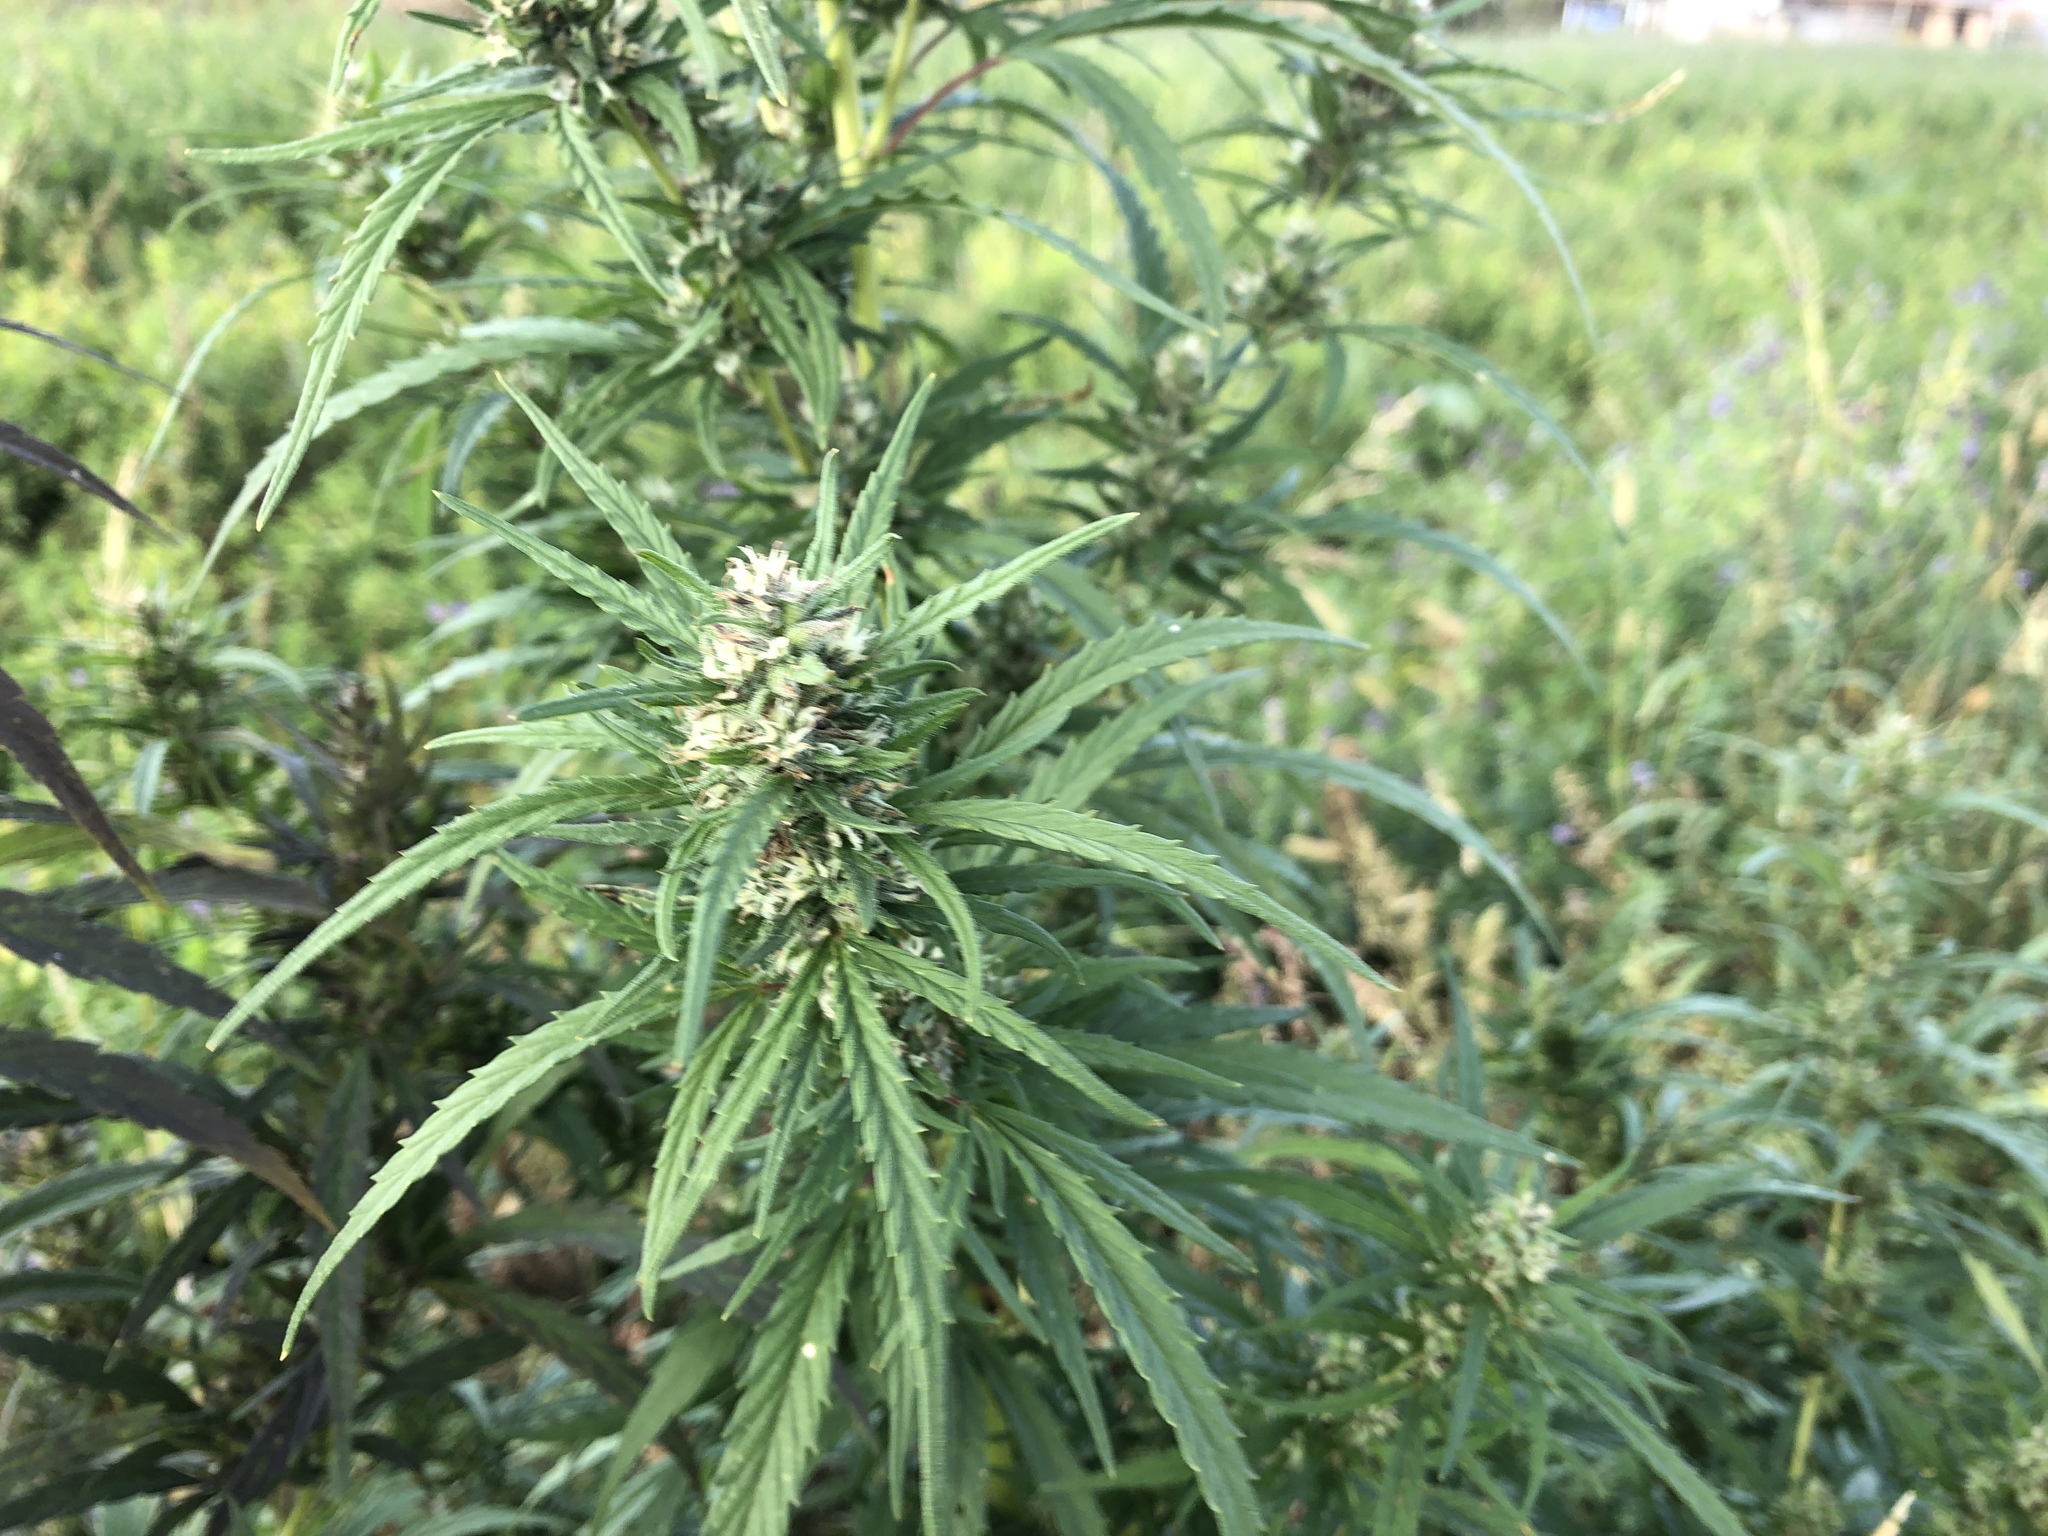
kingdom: Plantae
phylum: Tracheophyta
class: Magnoliopsida
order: Rosales
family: Cannabaceae
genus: Cannabis
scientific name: Cannabis sativa
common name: Hemp
